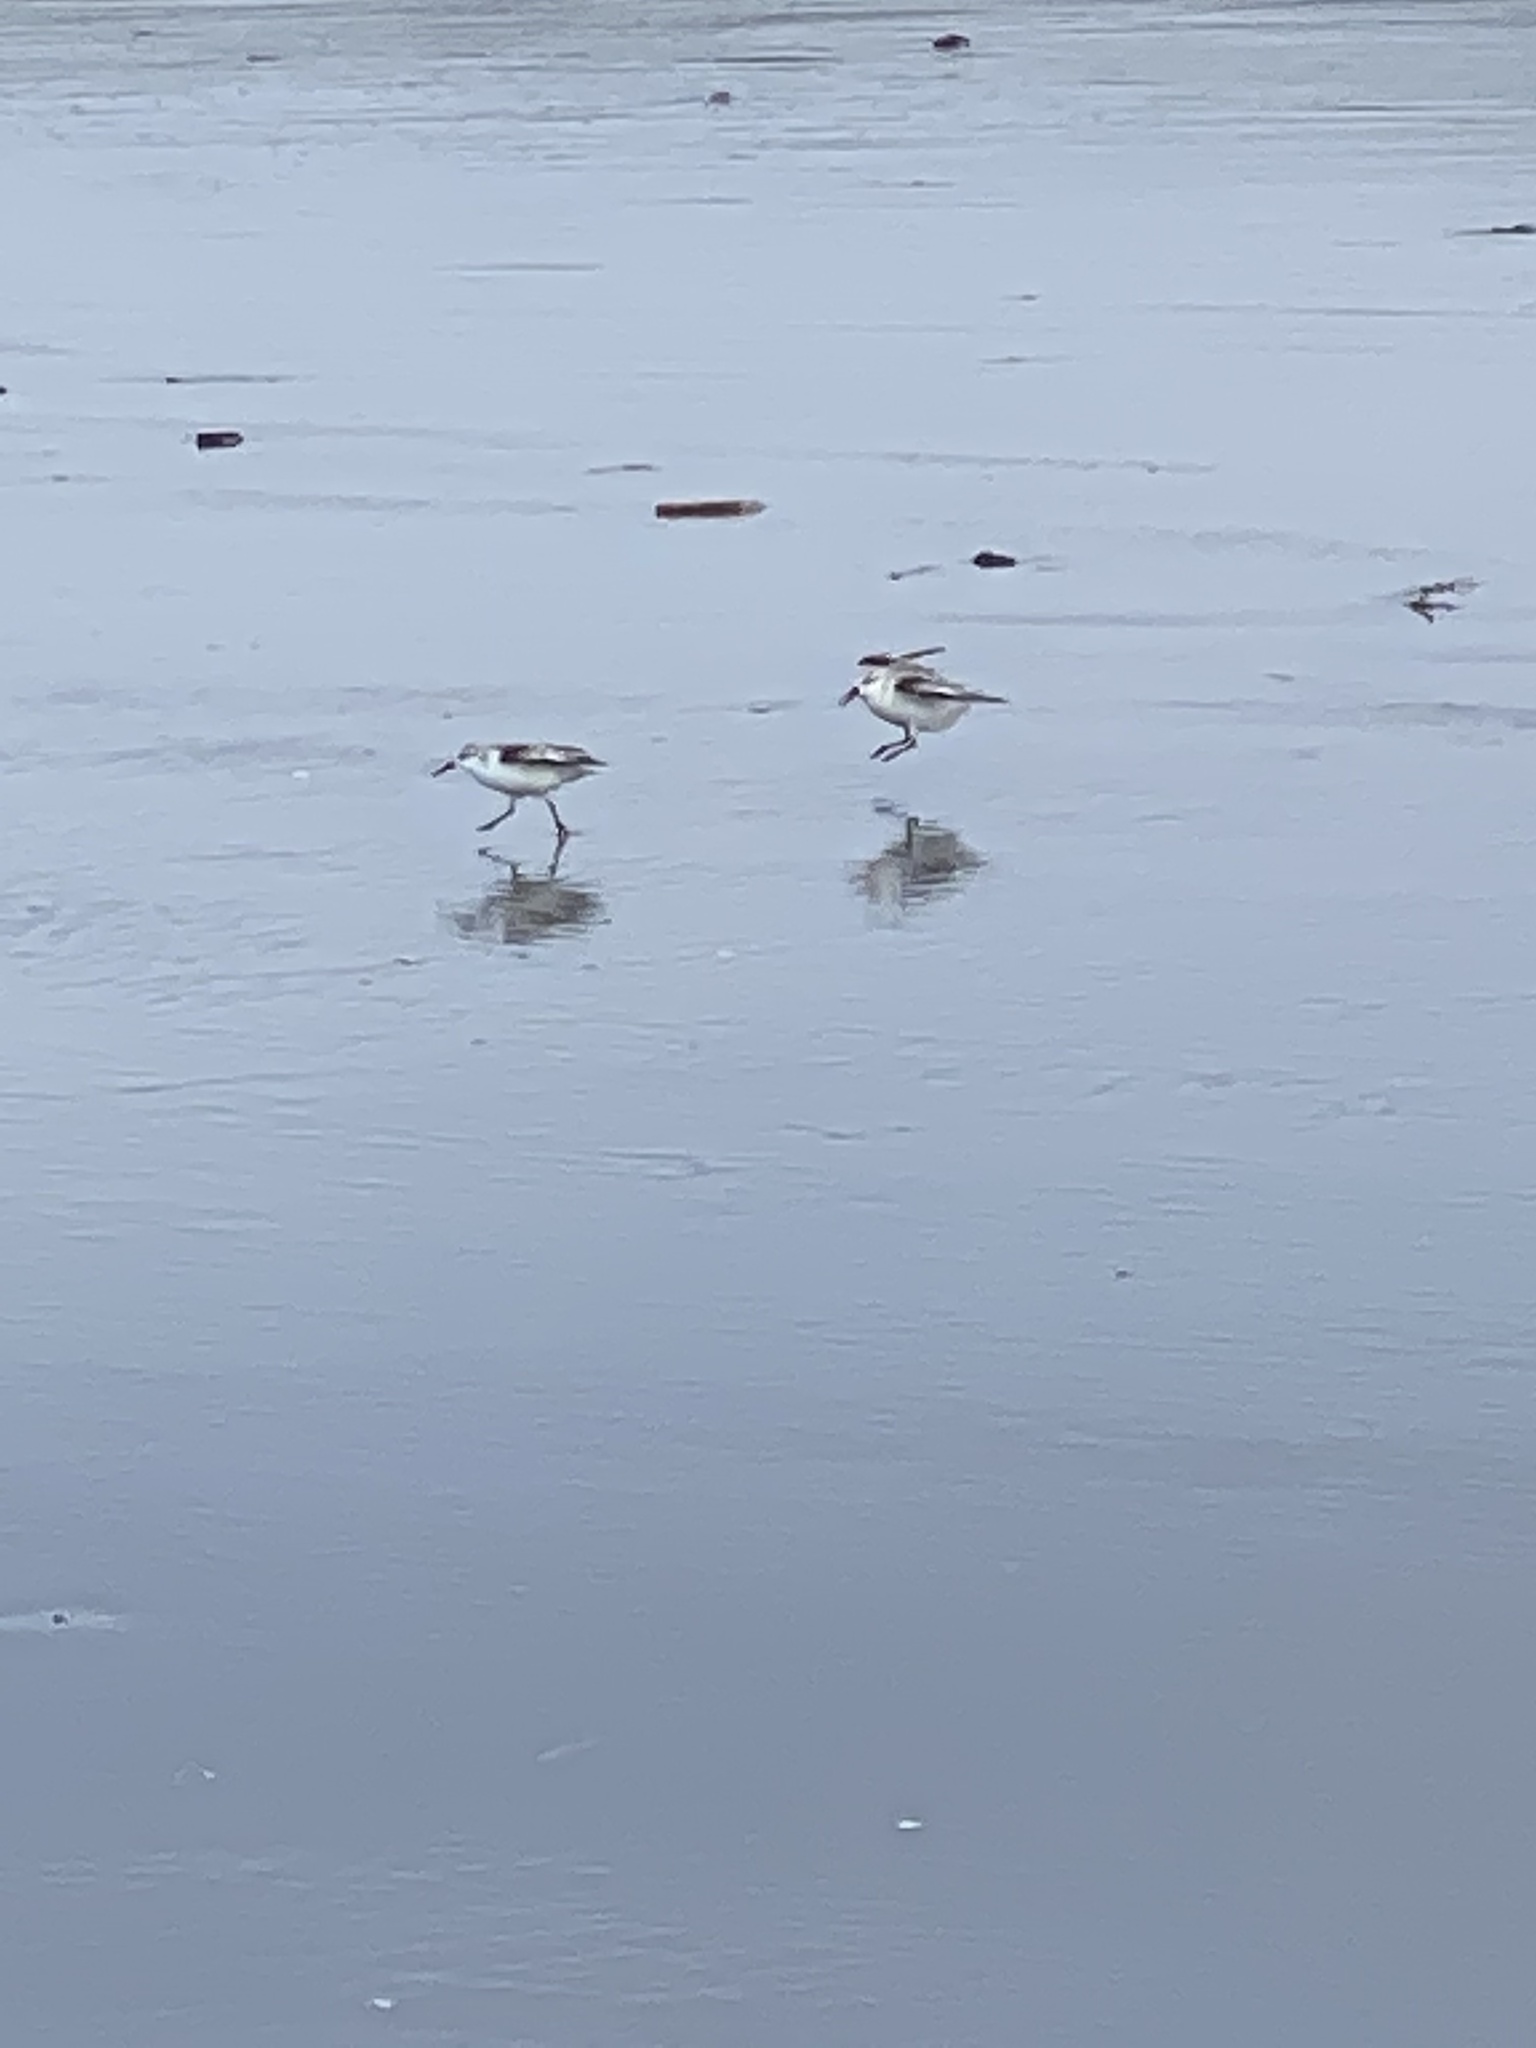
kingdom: Animalia
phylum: Chordata
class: Aves
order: Charadriiformes
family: Scolopacidae
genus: Calidris
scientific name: Calidris alba
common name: Sanderling
